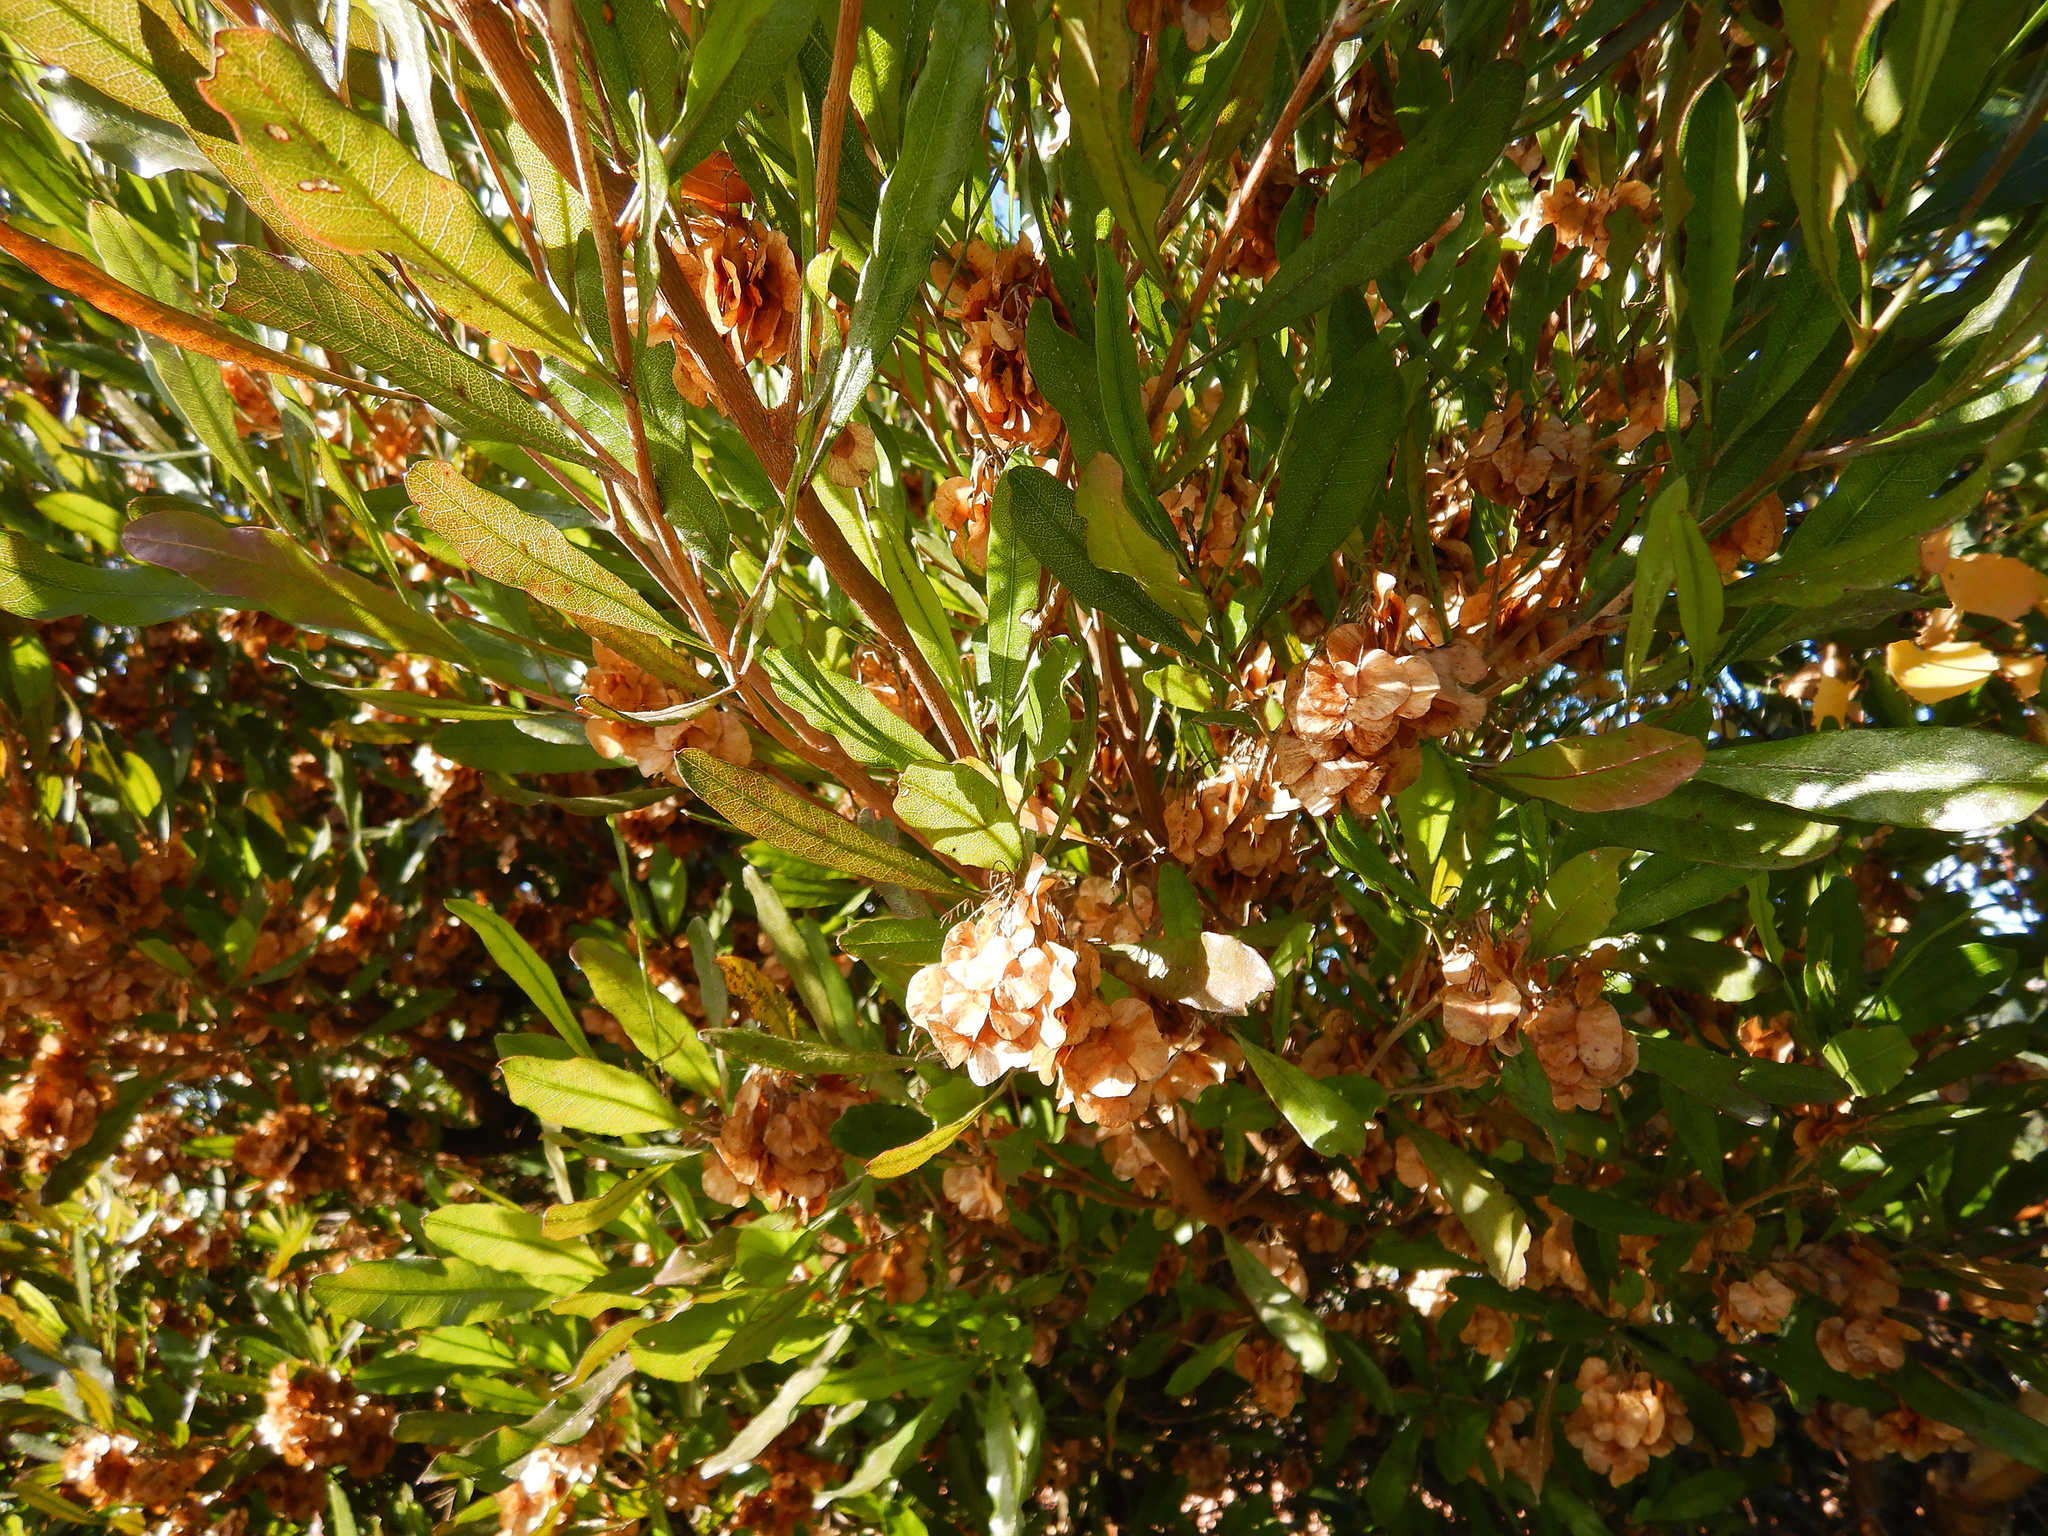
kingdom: Plantae
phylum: Tracheophyta
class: Magnoliopsida
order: Sapindales
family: Sapindaceae
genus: Dodonaea
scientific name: Dodonaea viscosa
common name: Hopbush
